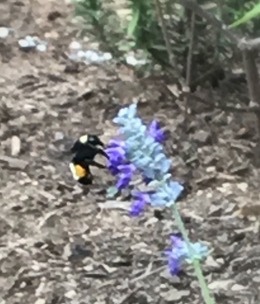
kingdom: Animalia
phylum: Arthropoda
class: Insecta
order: Hymenoptera
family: Apidae
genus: Bombus
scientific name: Bombus pensylvanicus
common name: Bumble bee
